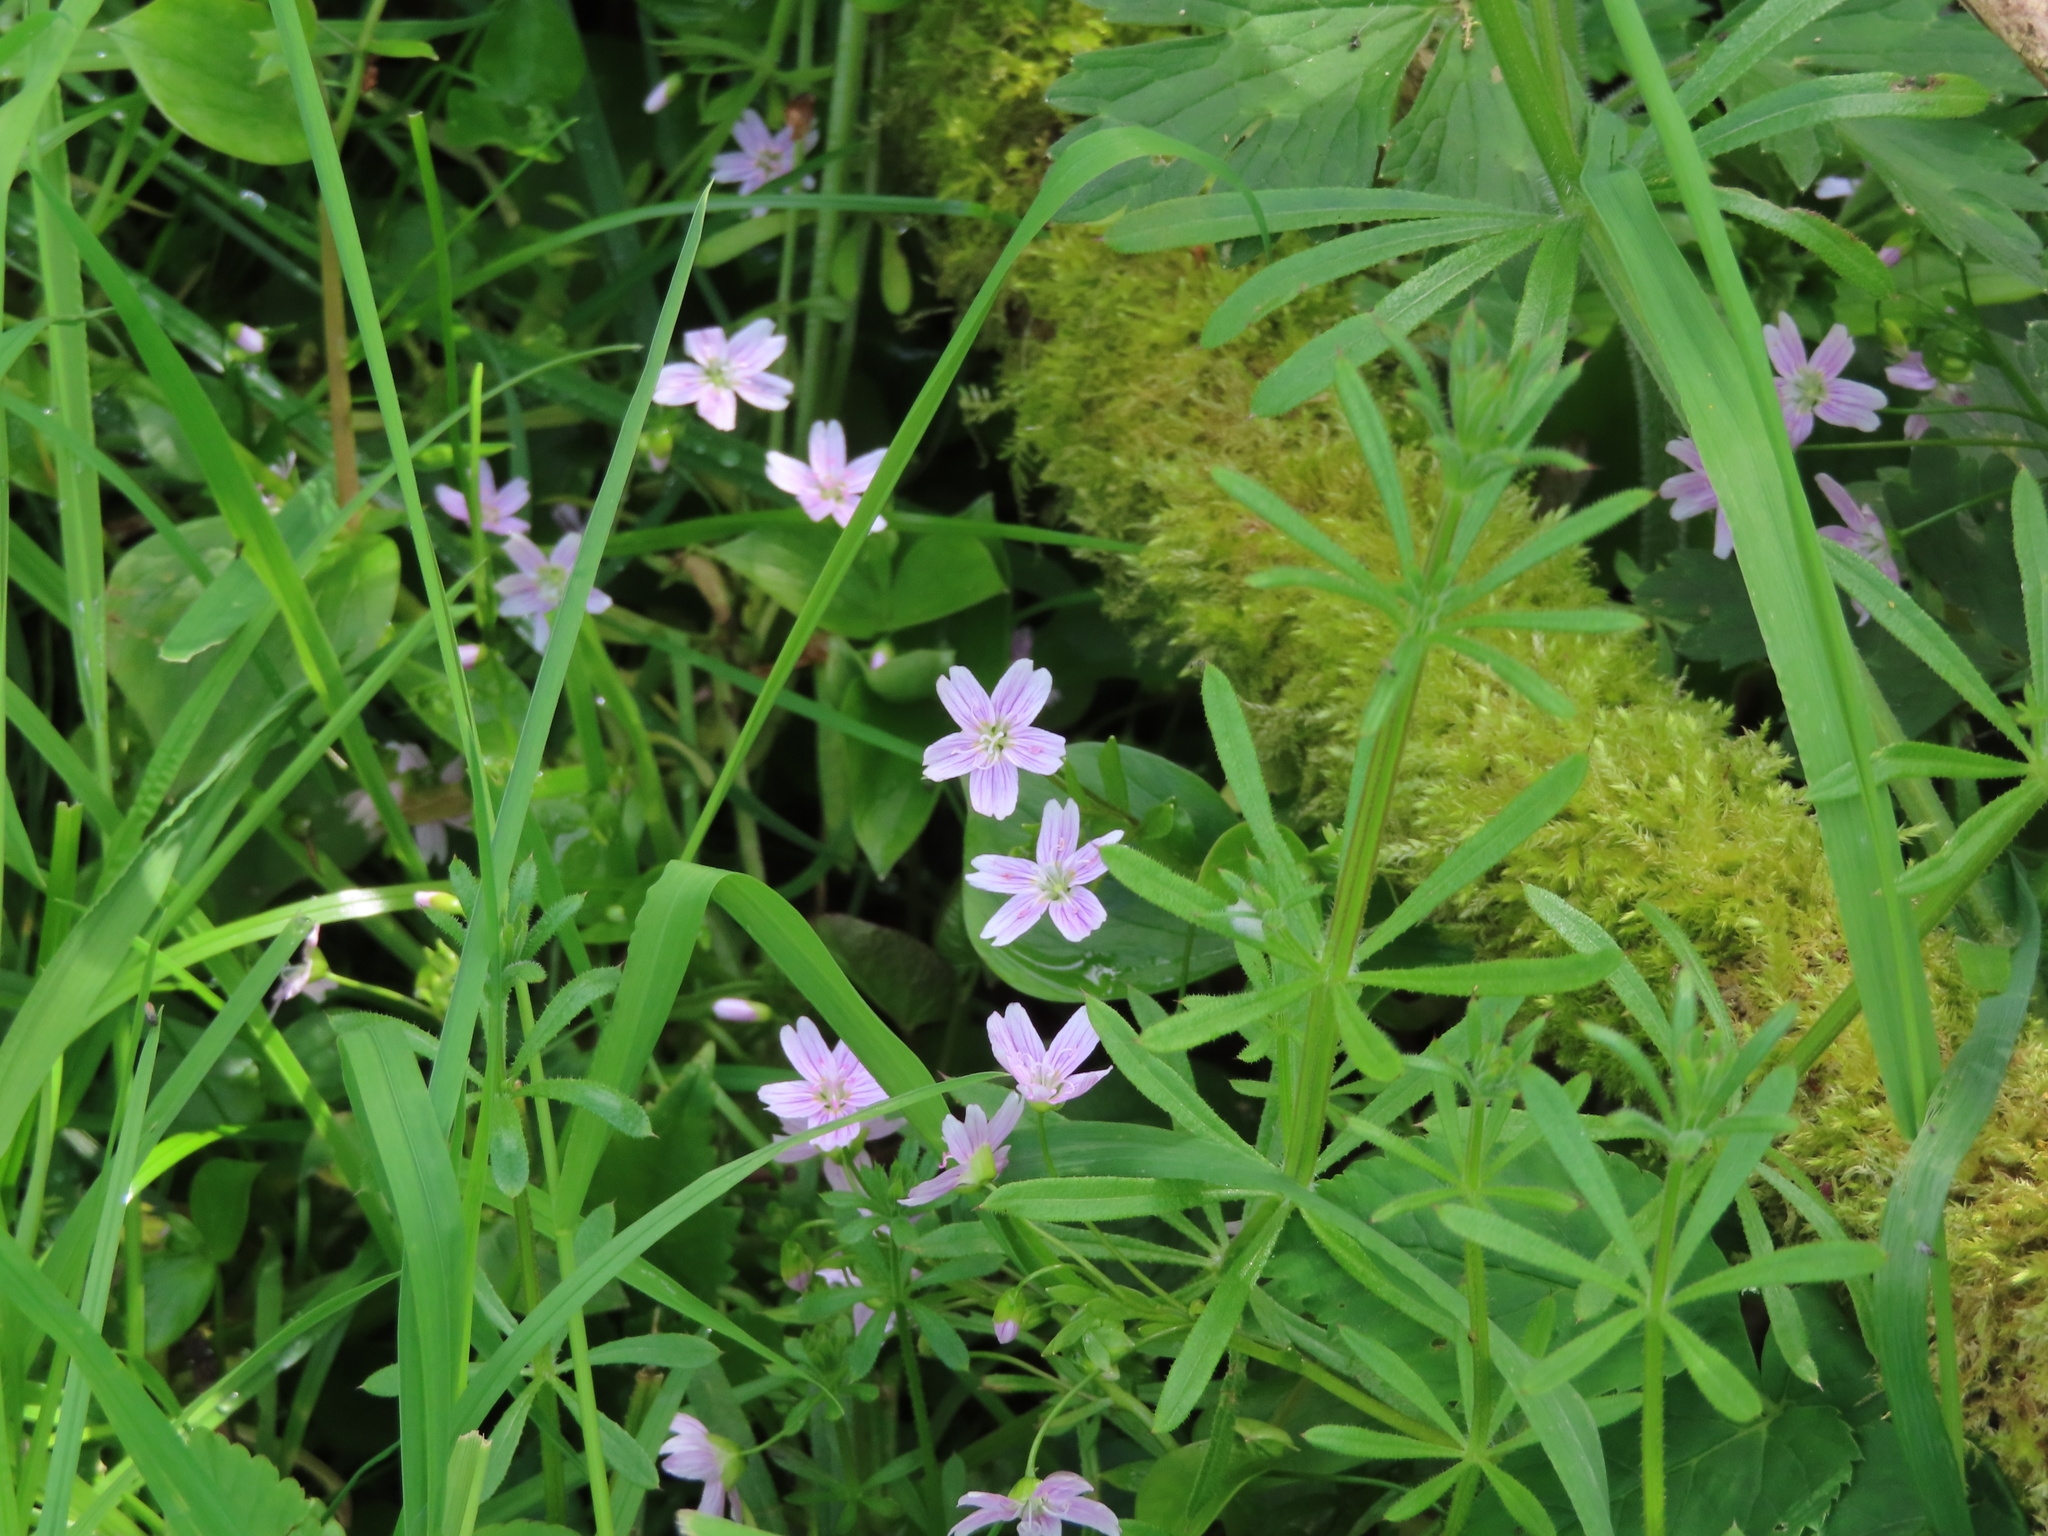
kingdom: Plantae
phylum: Tracheophyta
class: Magnoliopsida
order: Caryophyllales
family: Montiaceae
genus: Claytonia
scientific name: Claytonia sibirica
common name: Pink purslane
